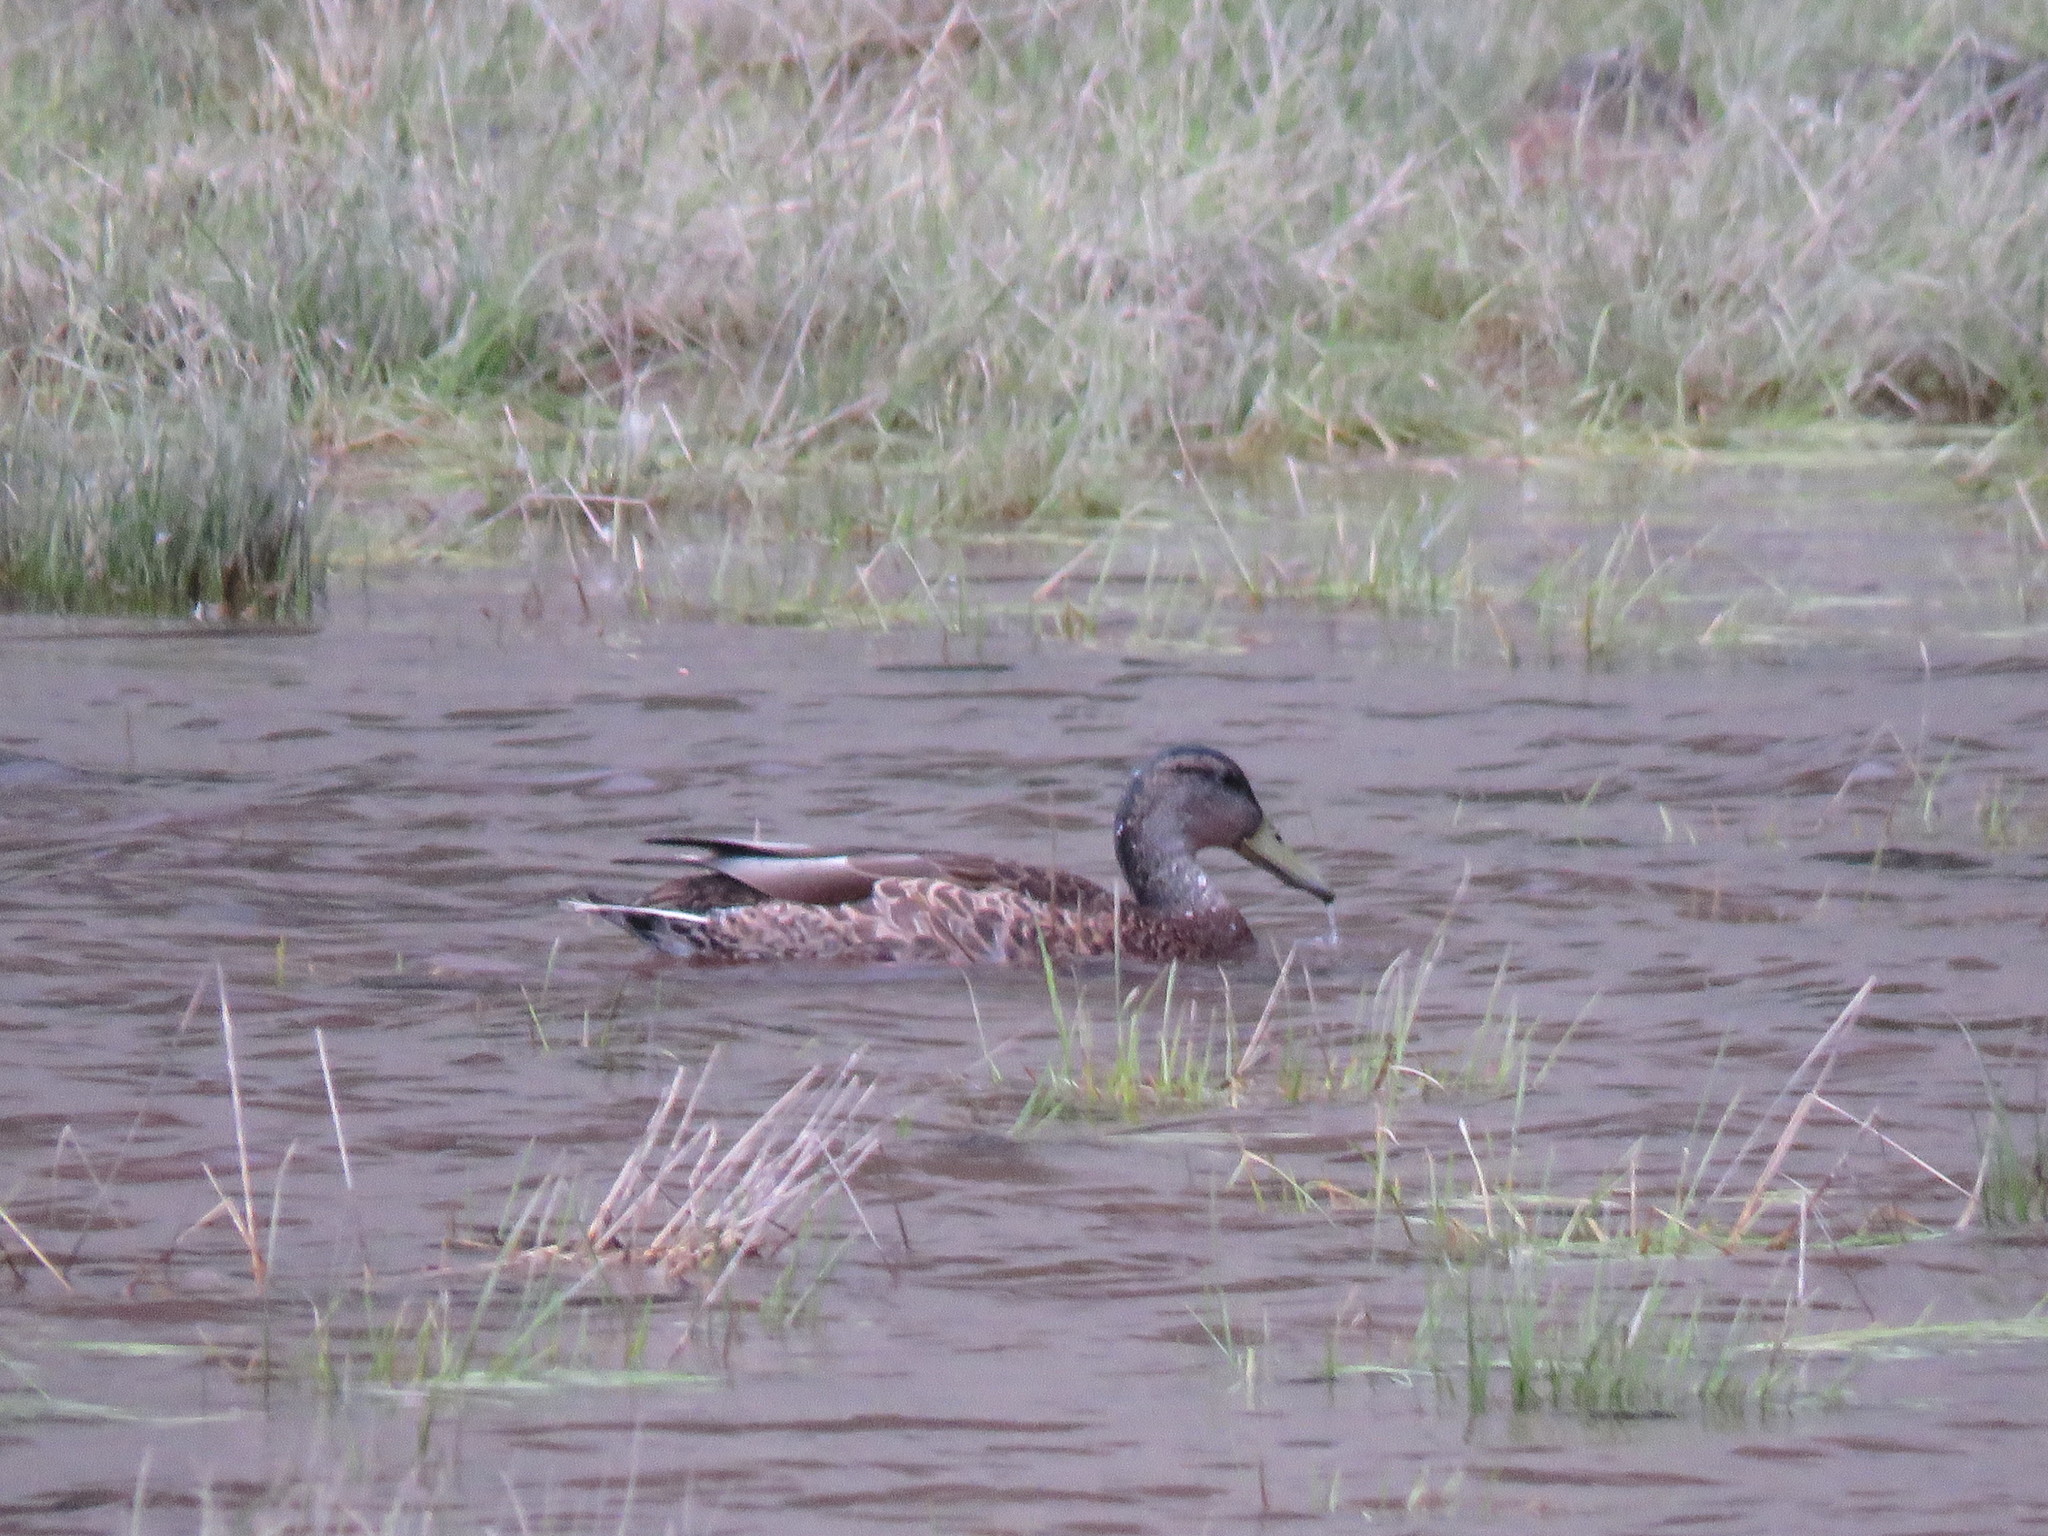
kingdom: Animalia
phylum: Chordata
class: Aves
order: Anseriformes
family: Anatidae
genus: Anas
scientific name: Anas platyrhynchos
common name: Mallard
